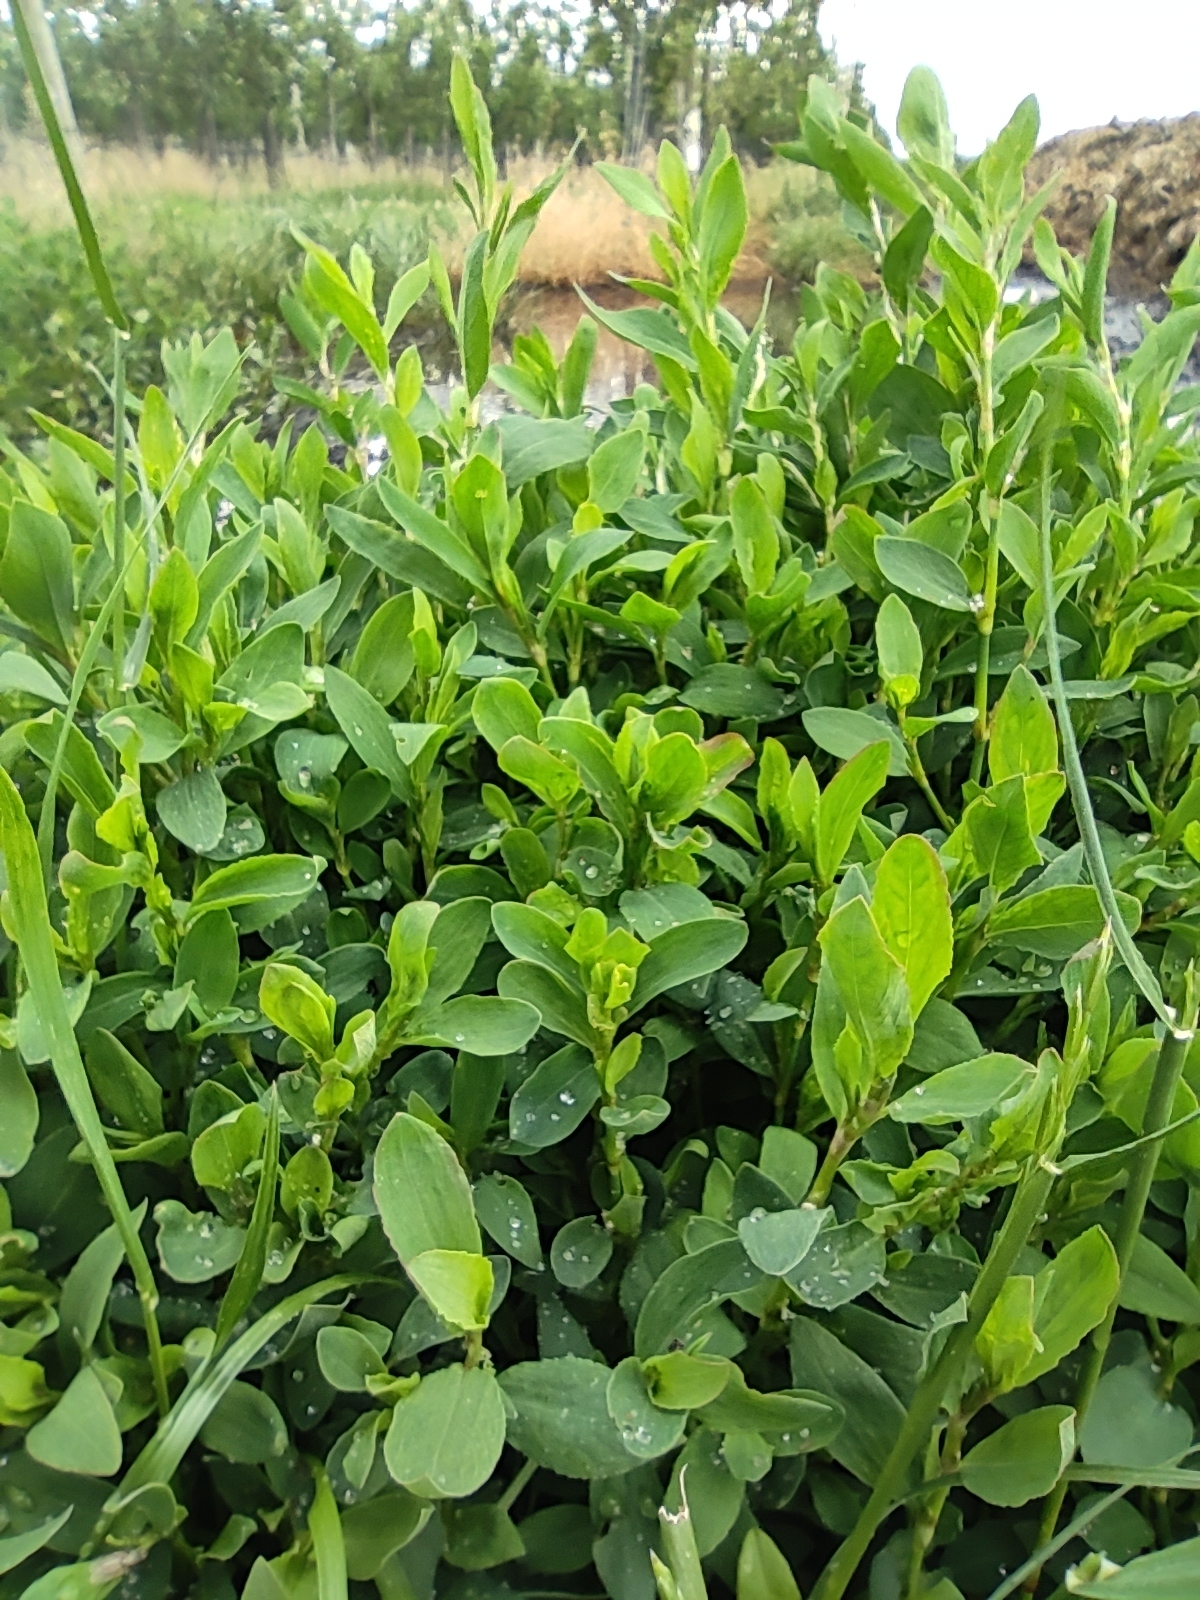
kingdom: Plantae
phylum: Tracheophyta
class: Magnoliopsida
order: Caryophyllales
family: Polygonaceae
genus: Polygonum
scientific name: Polygonum aviculare
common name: Prostrate knotweed
